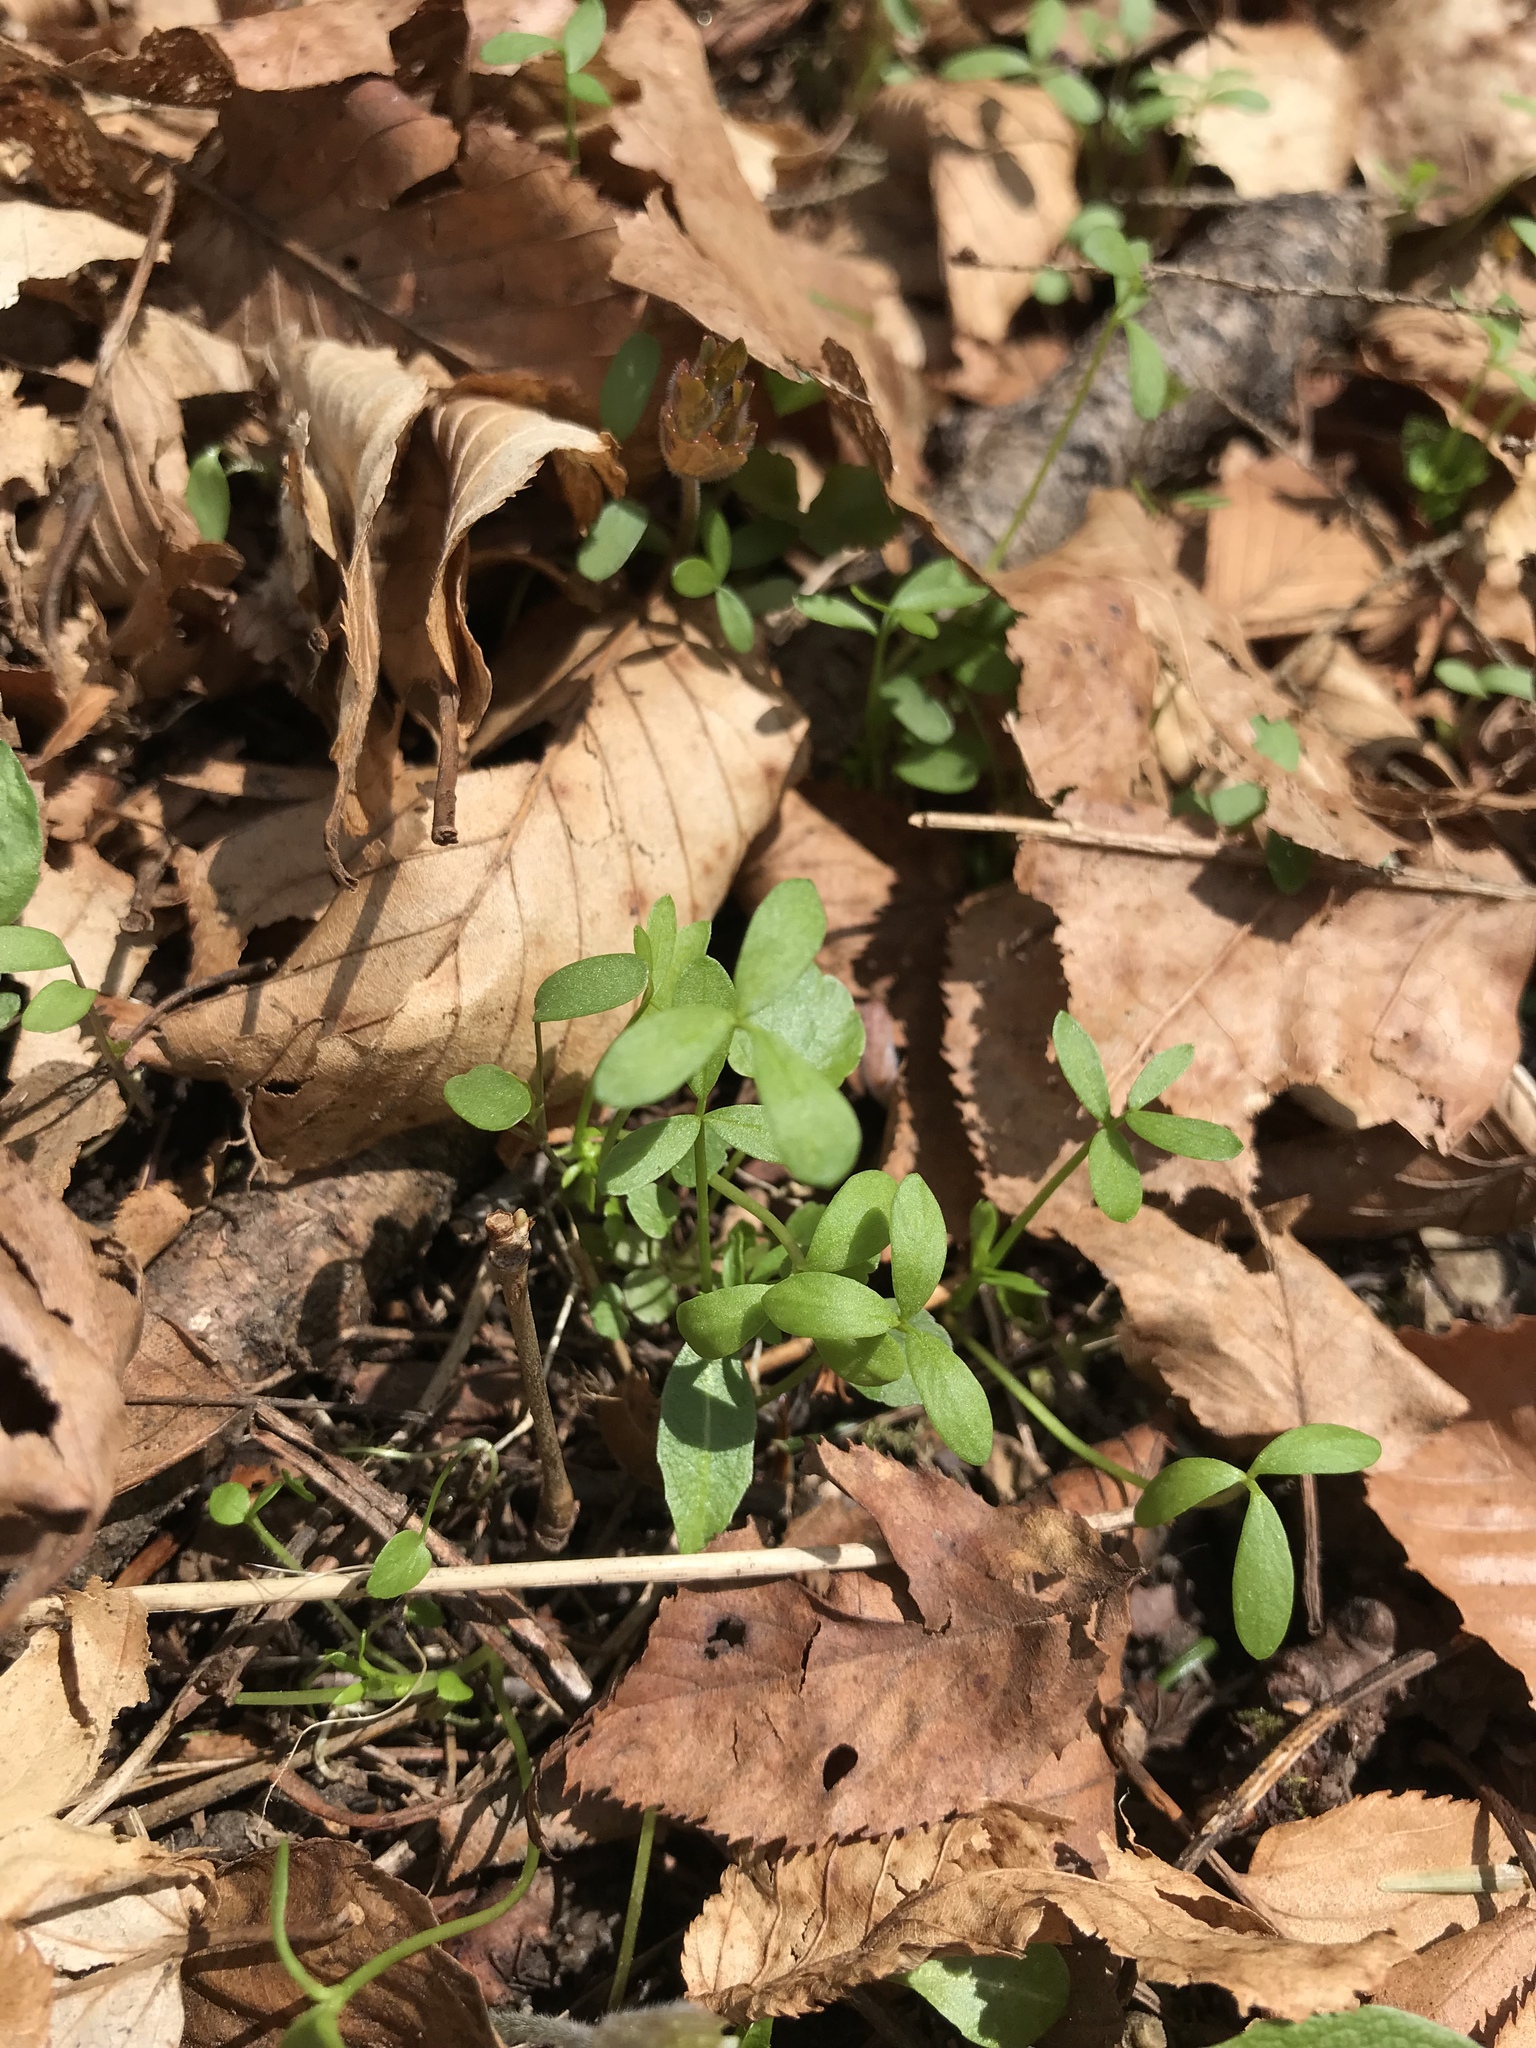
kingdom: Plantae
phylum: Tracheophyta
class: Magnoliopsida
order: Brassicales
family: Limnanthaceae
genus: Floerkea
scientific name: Floerkea proserpinacoides
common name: False mermaid
